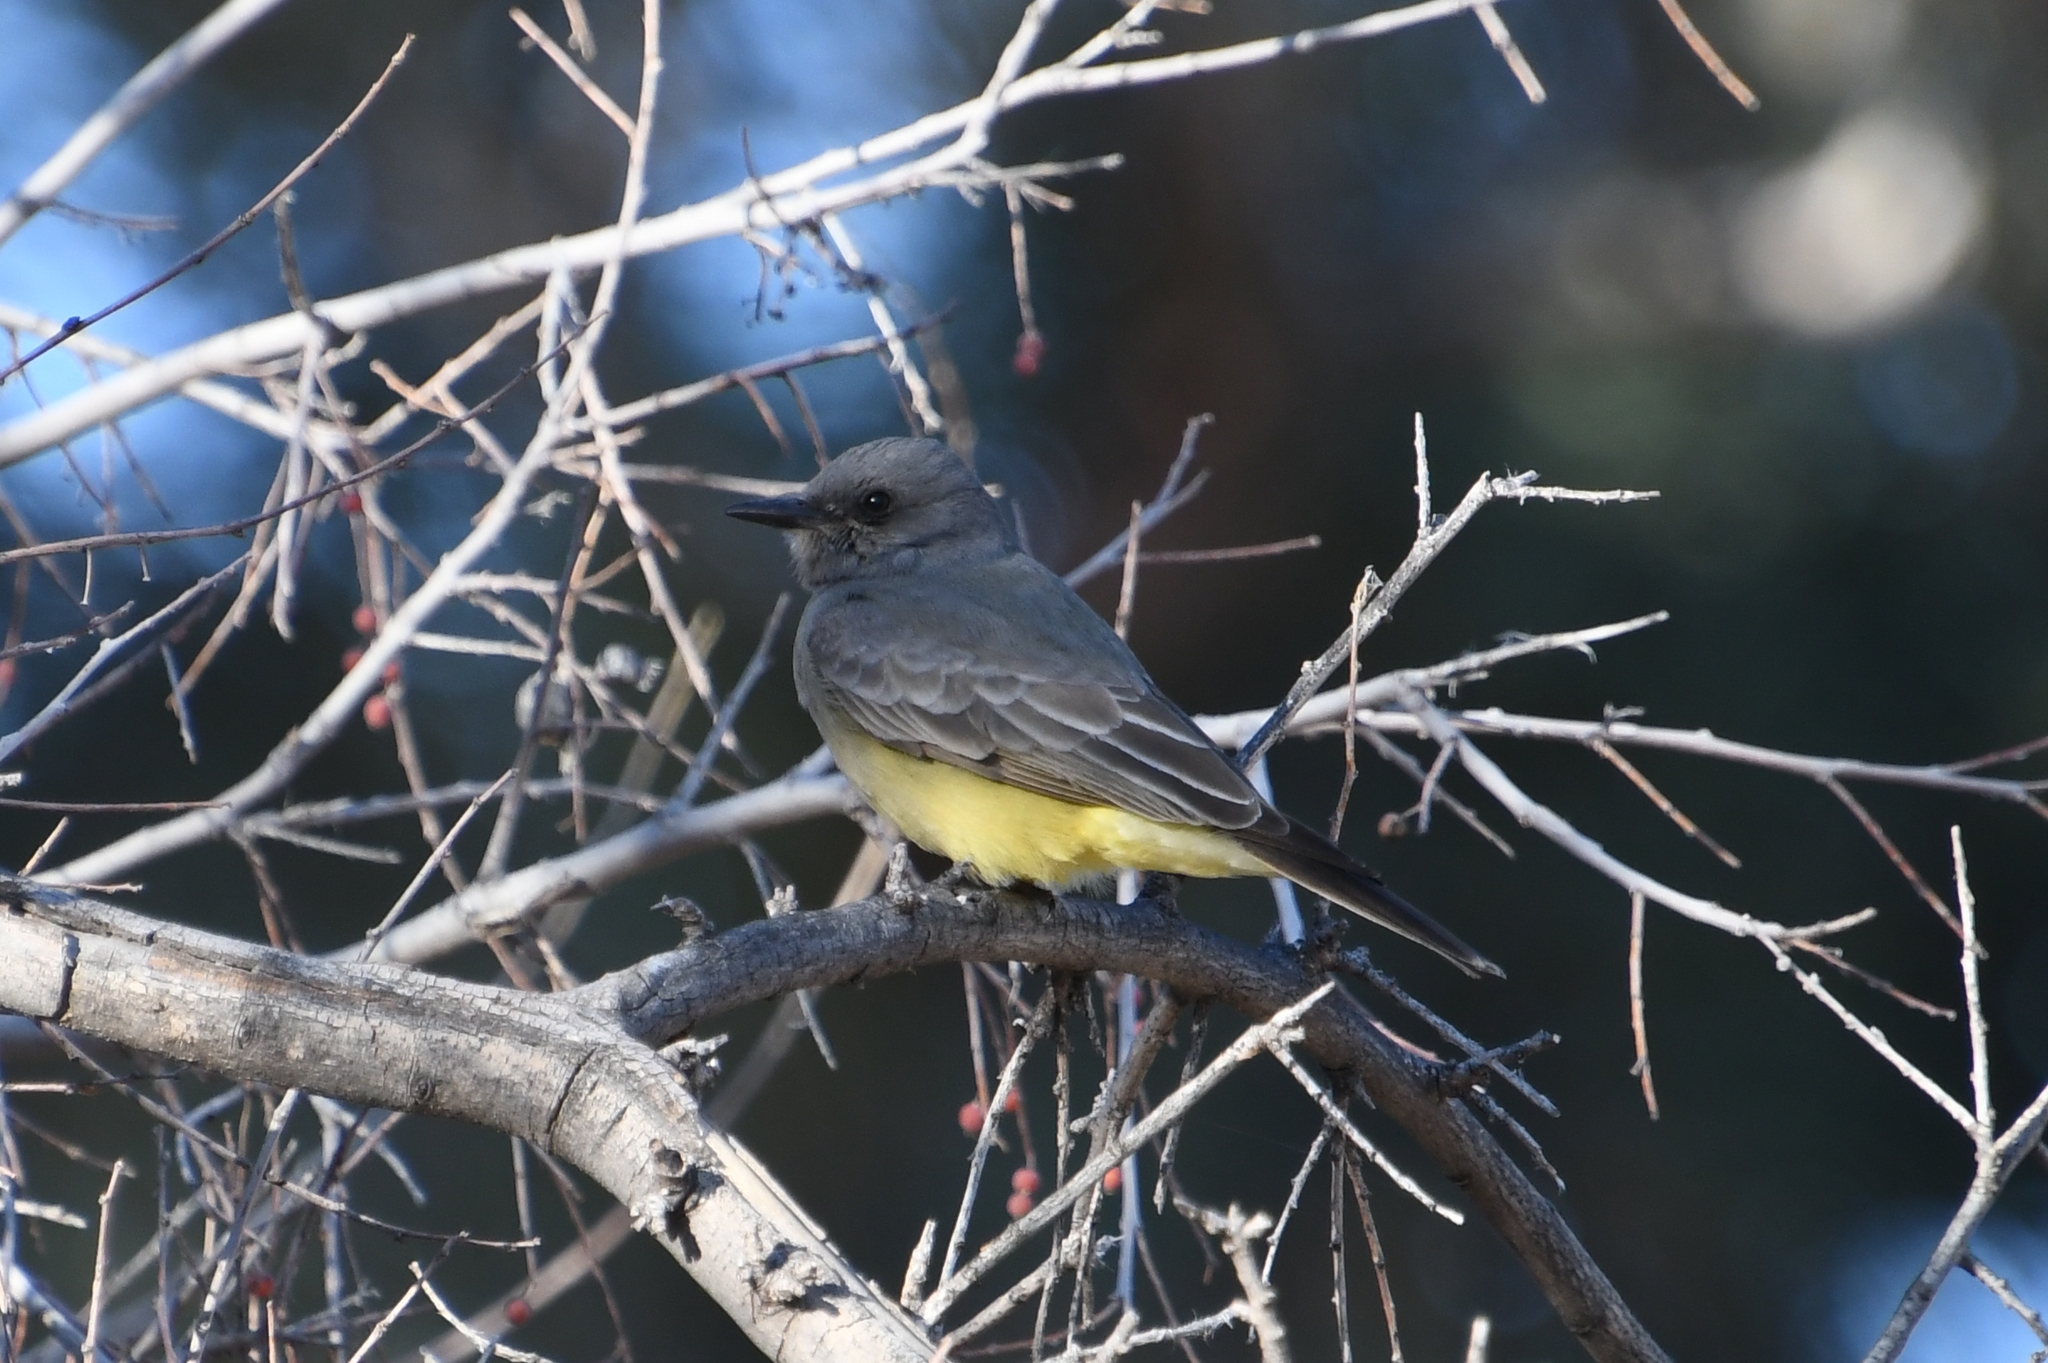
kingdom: Animalia
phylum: Chordata
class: Aves
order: Passeriformes
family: Tyrannidae
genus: Tyrannus
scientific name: Tyrannus vociferans
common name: Cassin's kingbird
